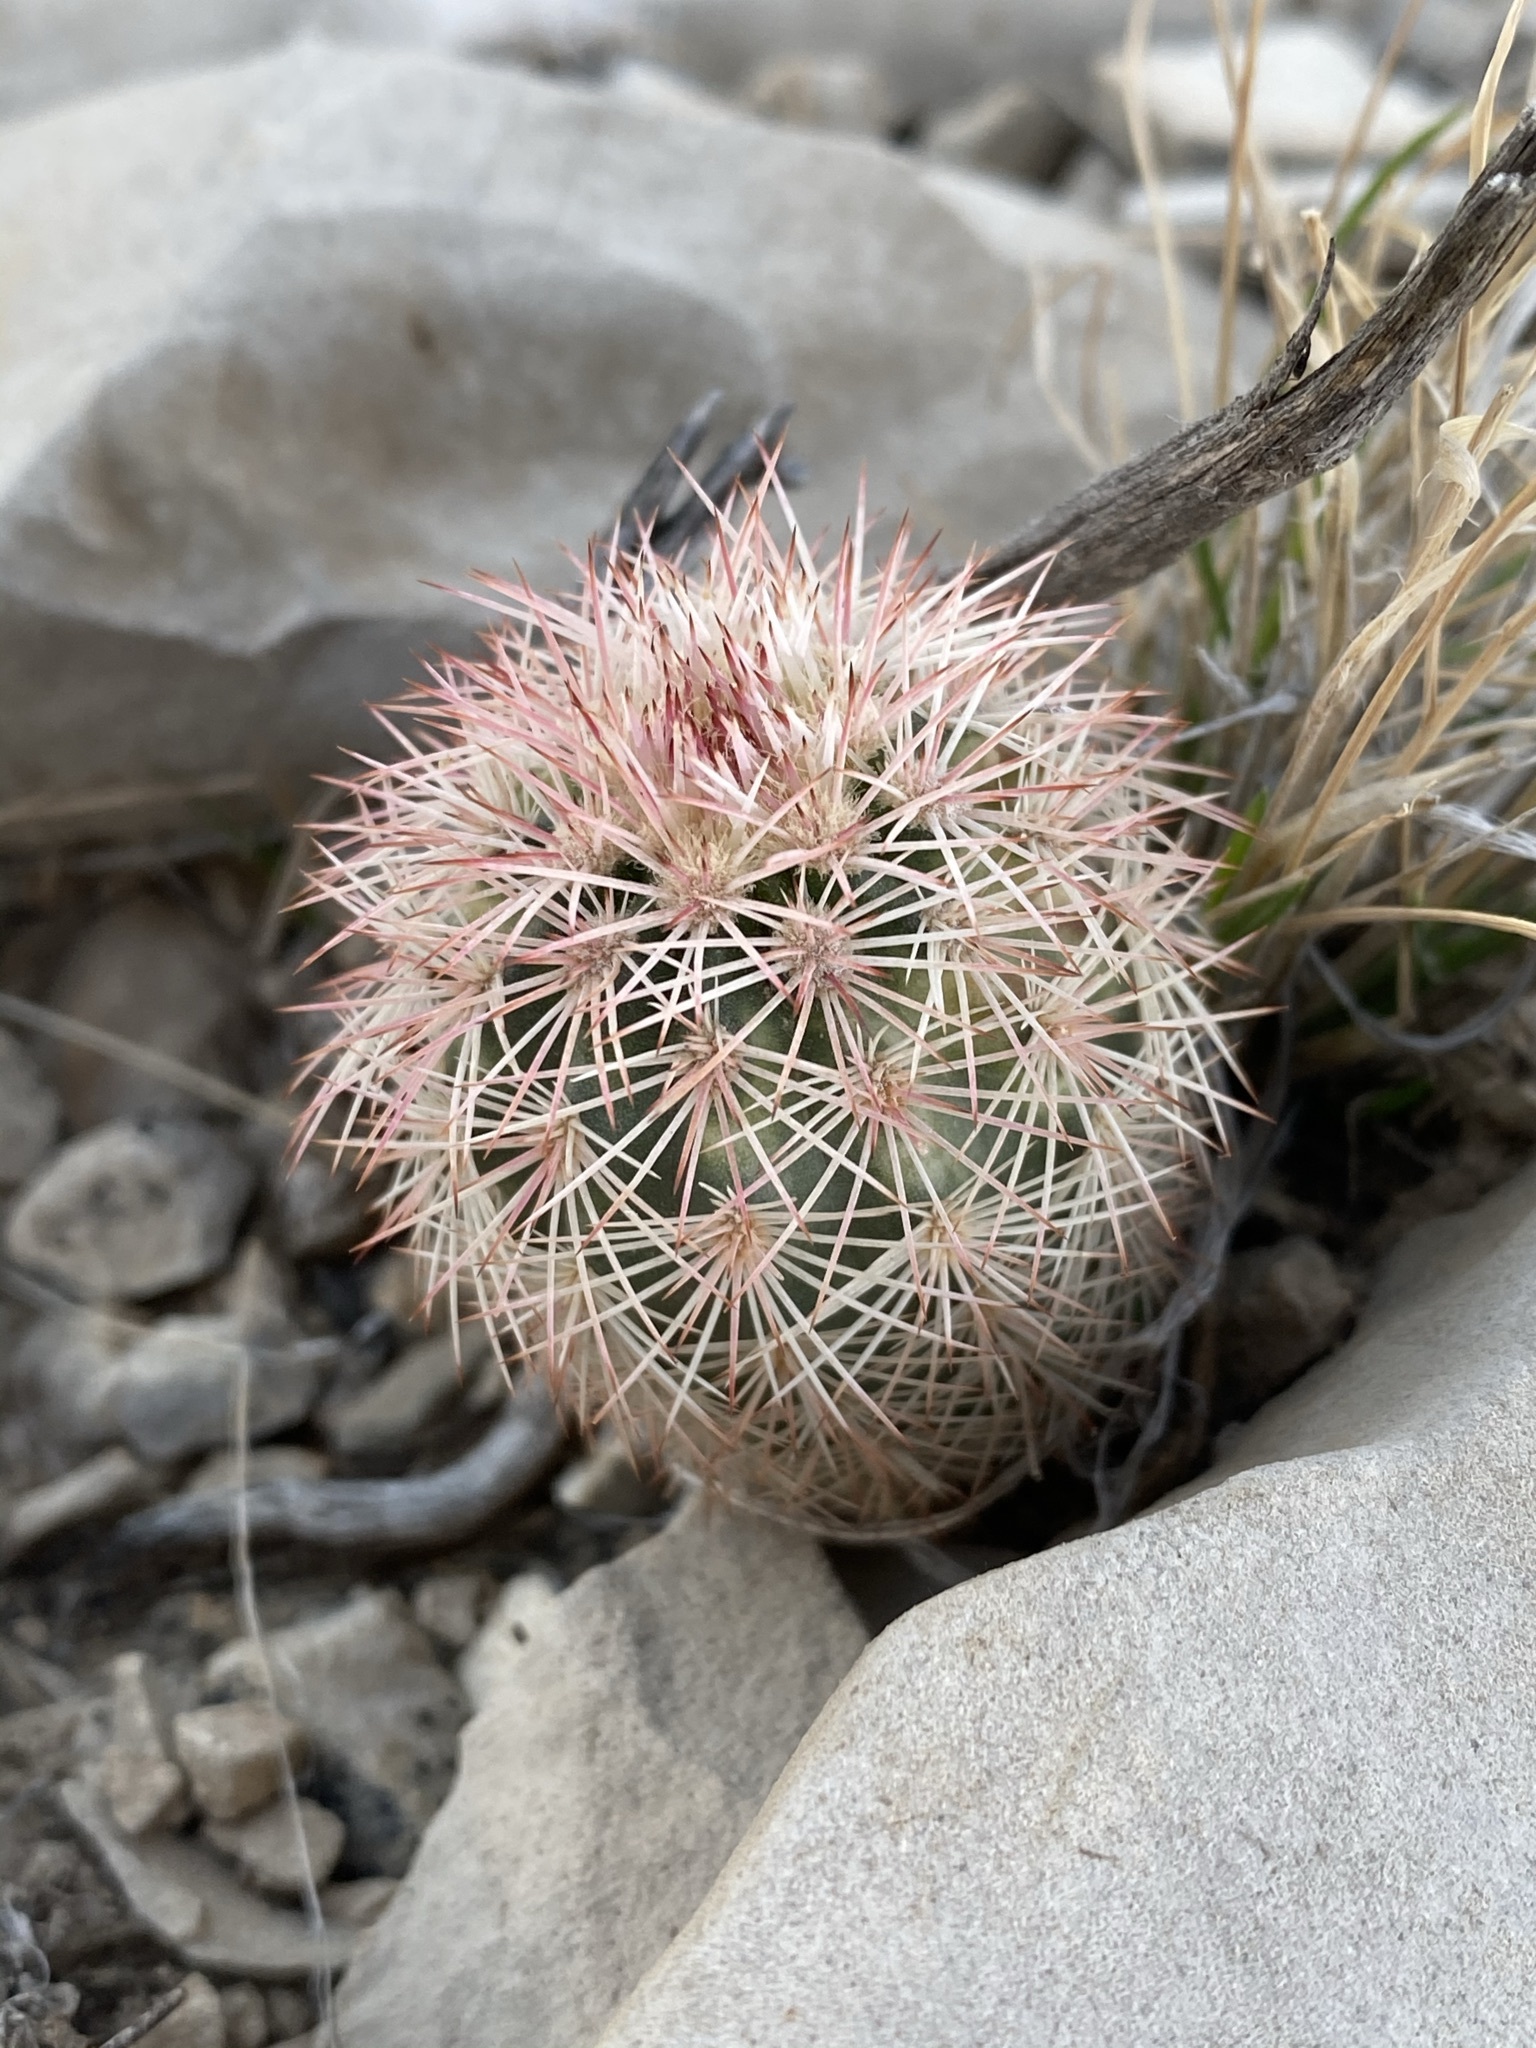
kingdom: Plantae
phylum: Tracheophyta
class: Magnoliopsida
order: Caryophyllales
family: Cactaceae
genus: Echinocereus
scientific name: Echinocereus dasyacanthus
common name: Spiny hedgehog cactus
